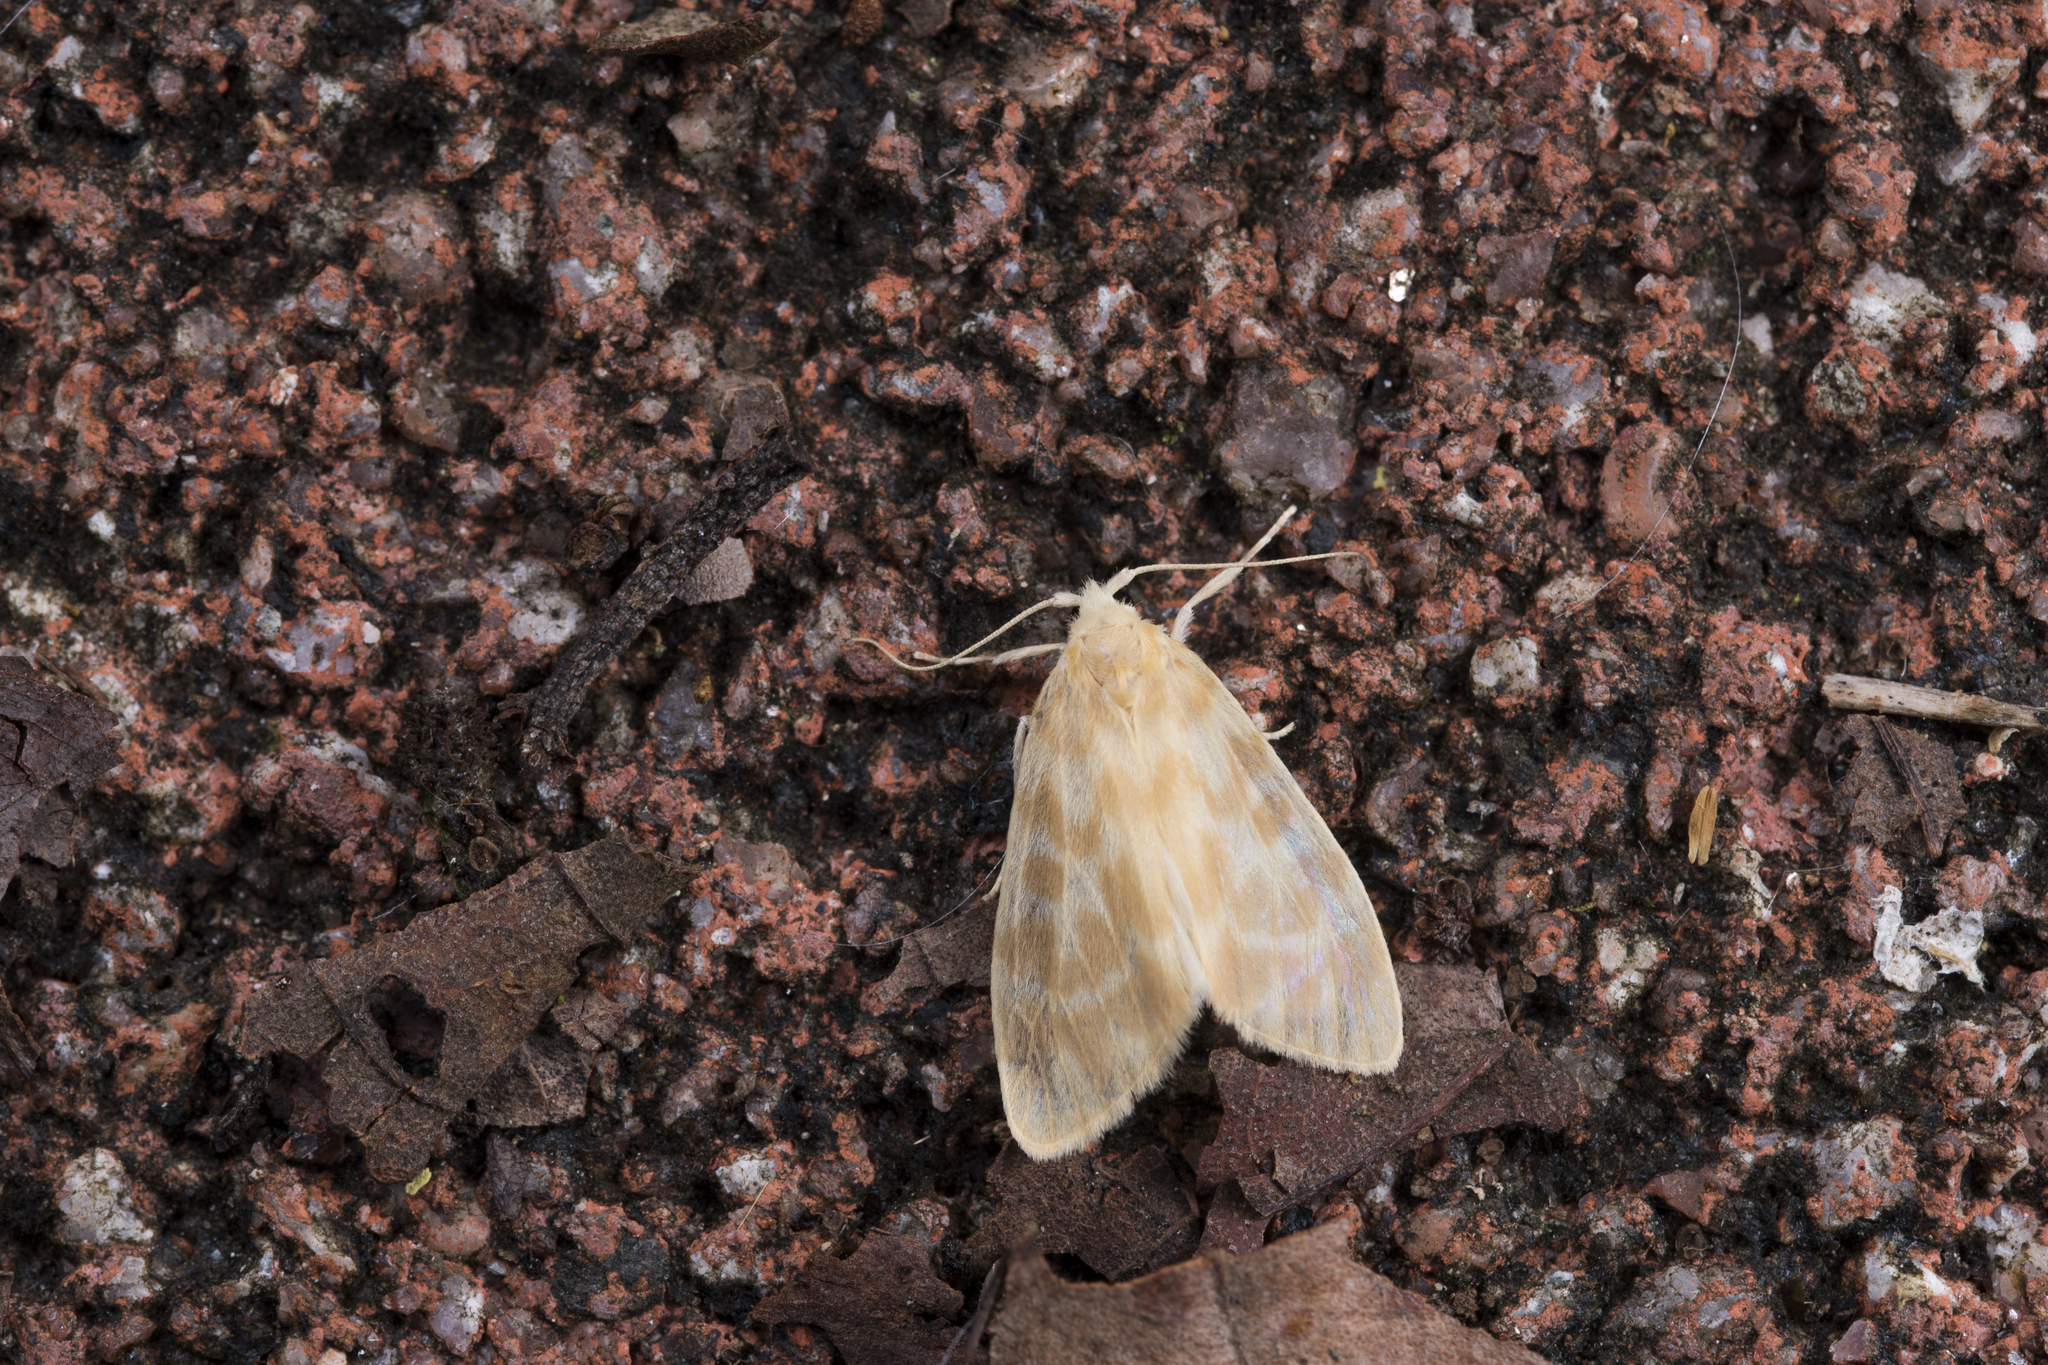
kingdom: Animalia
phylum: Arthropoda
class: Insecta
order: Lepidoptera
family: Erebidae
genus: Hemipsilia
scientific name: Hemipsilia coavestis
